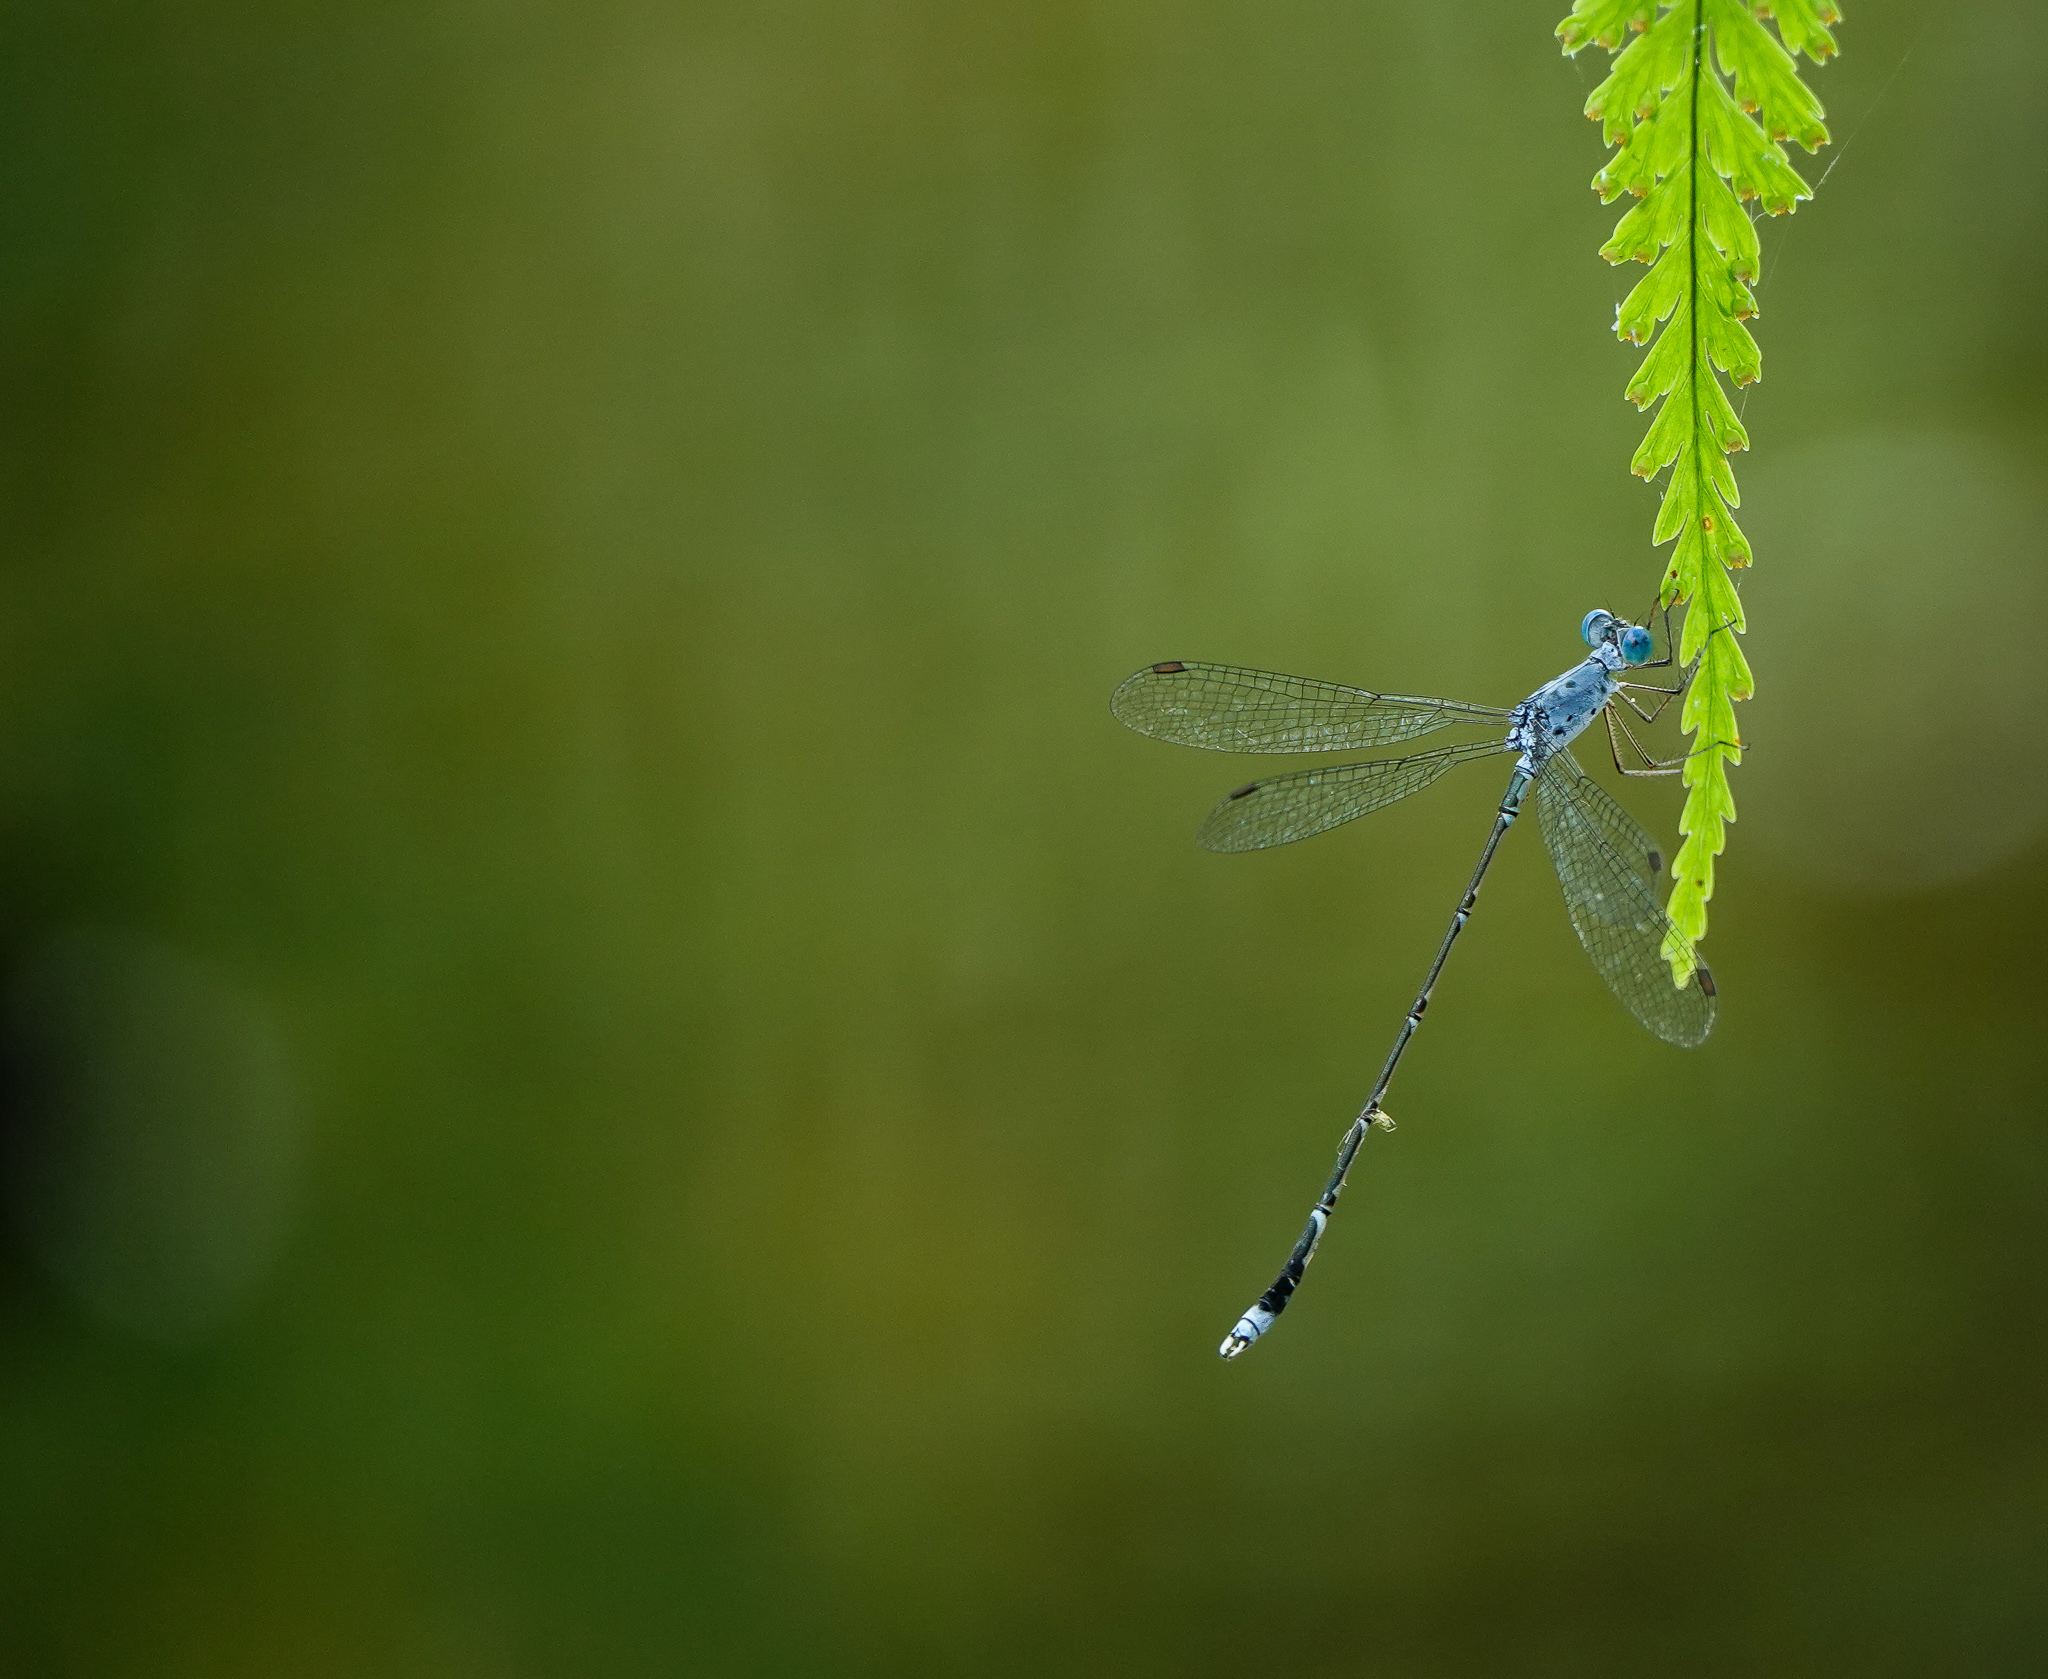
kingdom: Animalia
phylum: Arthropoda
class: Insecta
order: Odonata
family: Lestidae
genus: Lestes
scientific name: Lestes praemorsus
